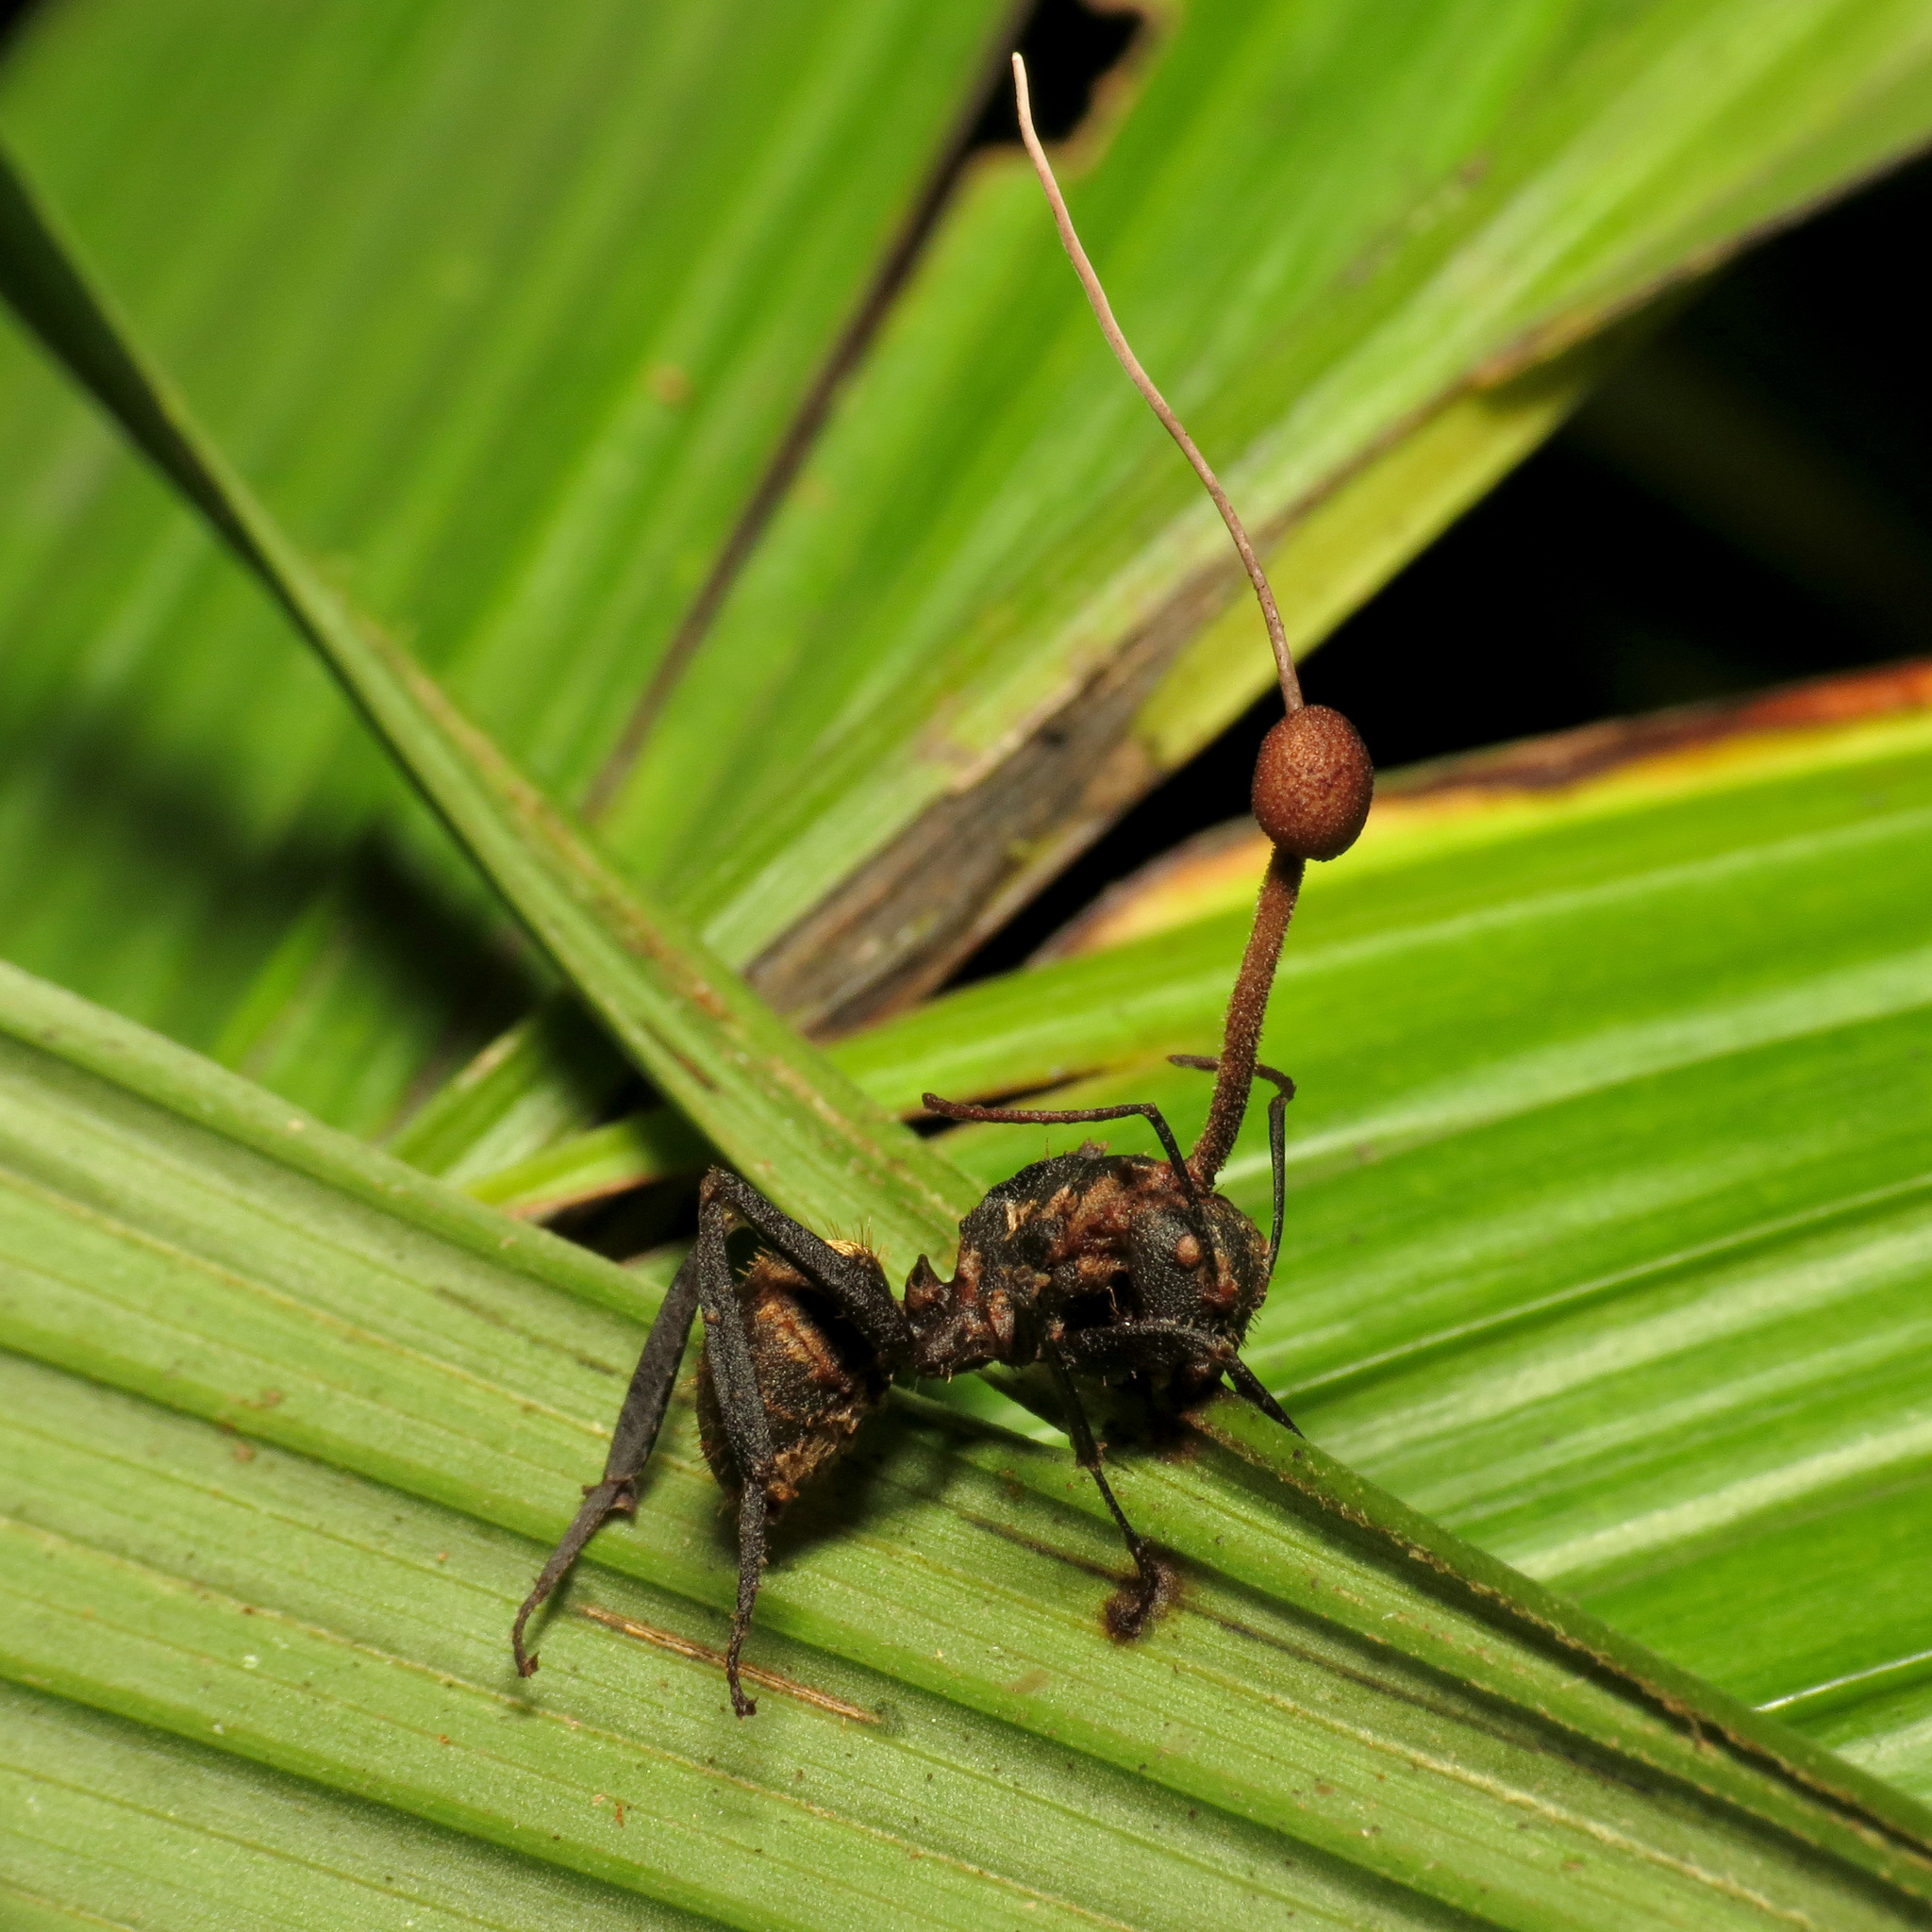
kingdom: Animalia
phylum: Arthropoda
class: Insecta
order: Hymenoptera
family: Formicidae
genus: Camponotus
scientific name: Camponotus sericeiventris
